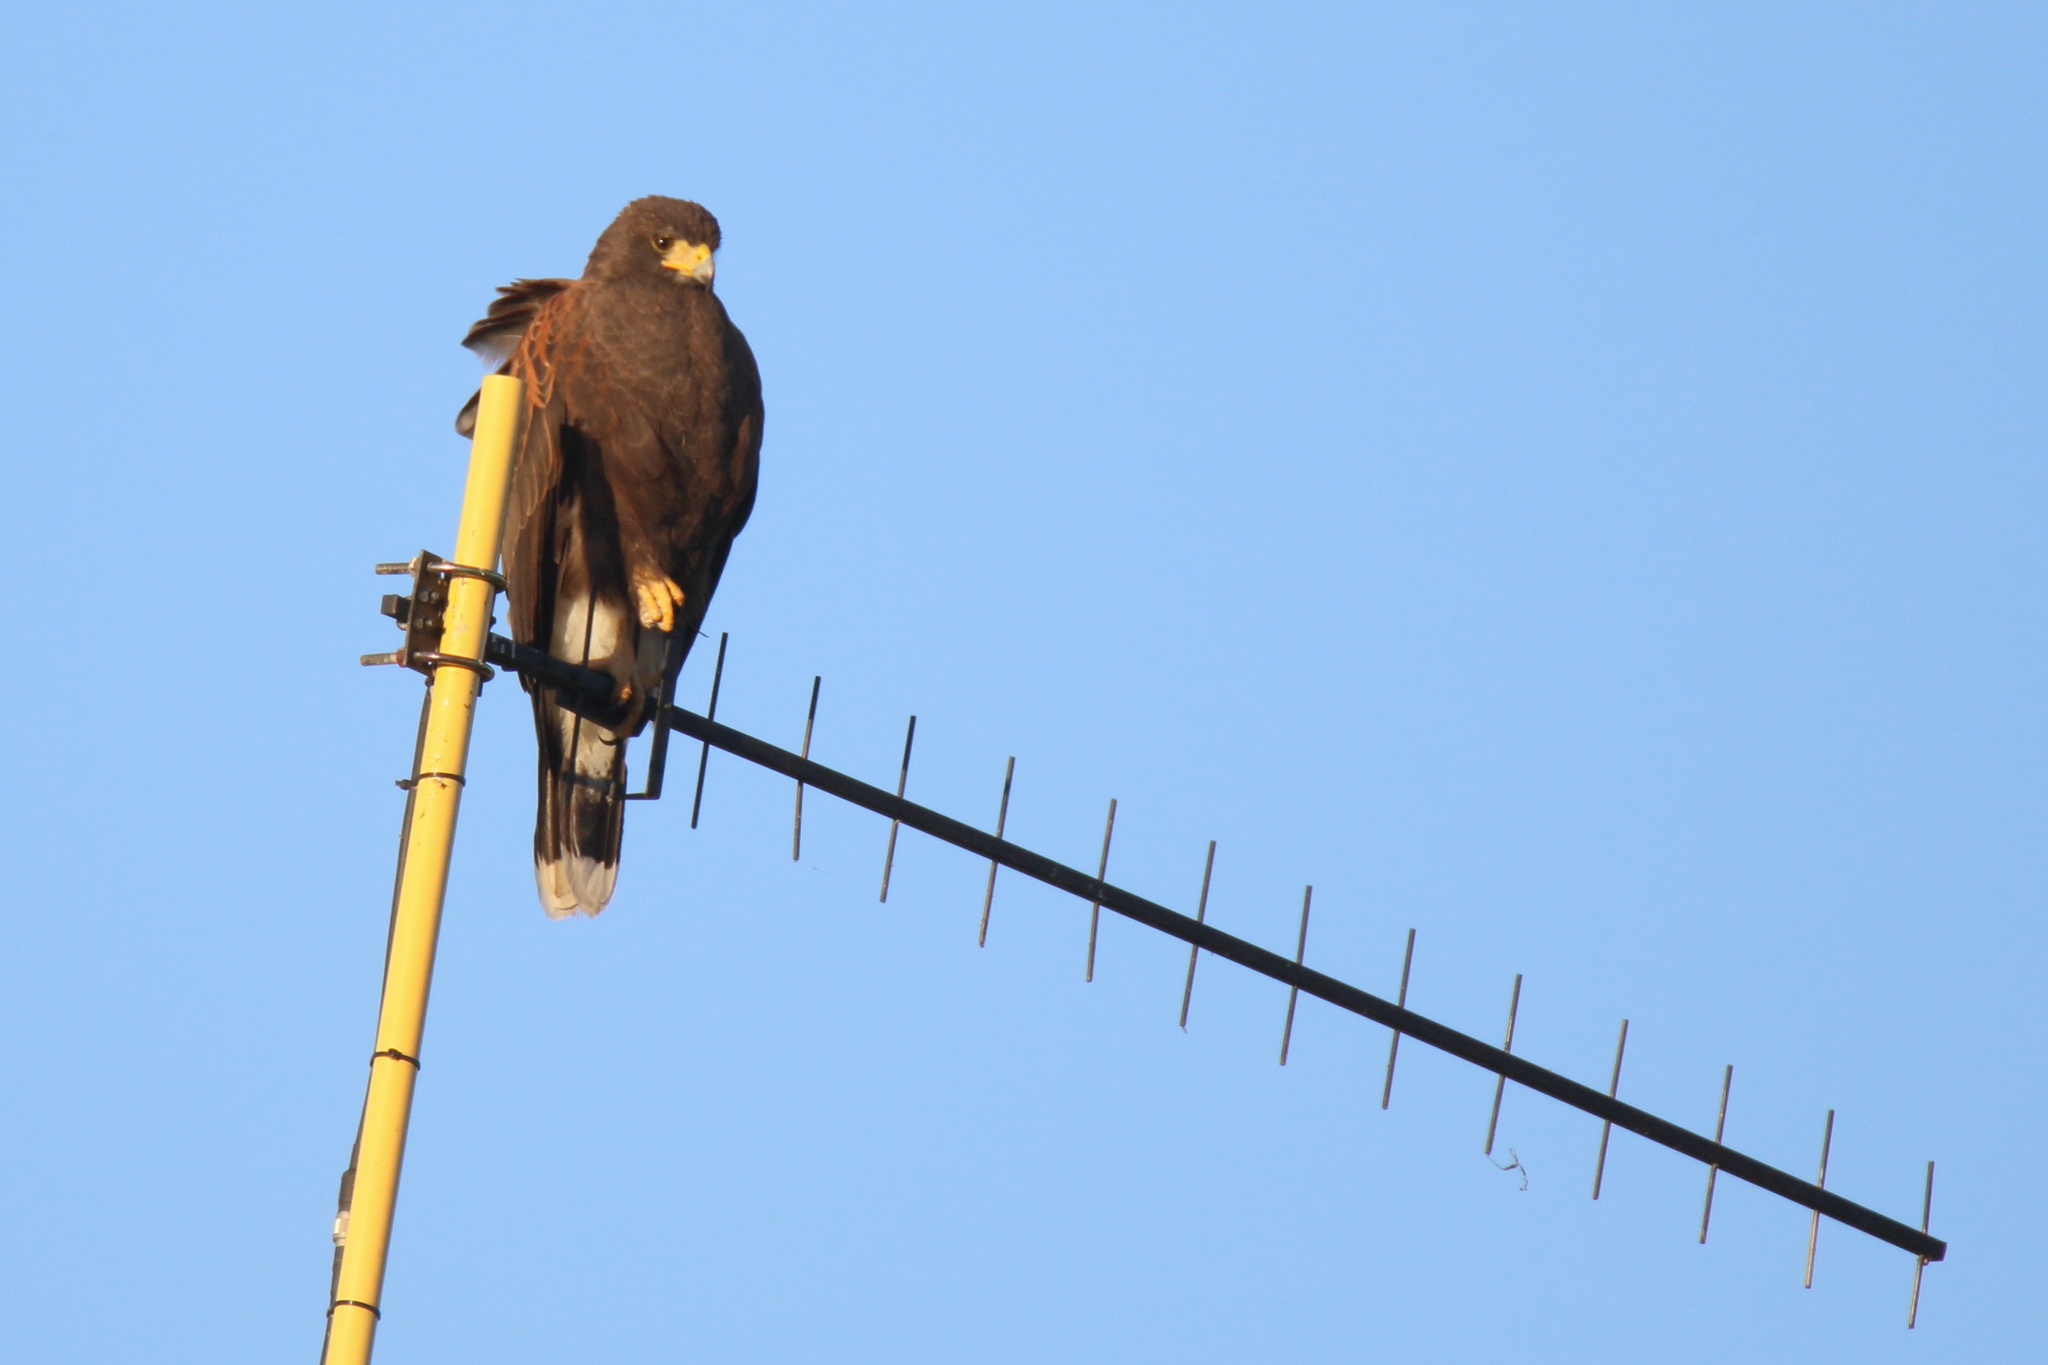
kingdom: Animalia
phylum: Chordata
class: Aves
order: Accipitriformes
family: Accipitridae
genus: Parabuteo
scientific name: Parabuteo unicinctus
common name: Harris's hawk
